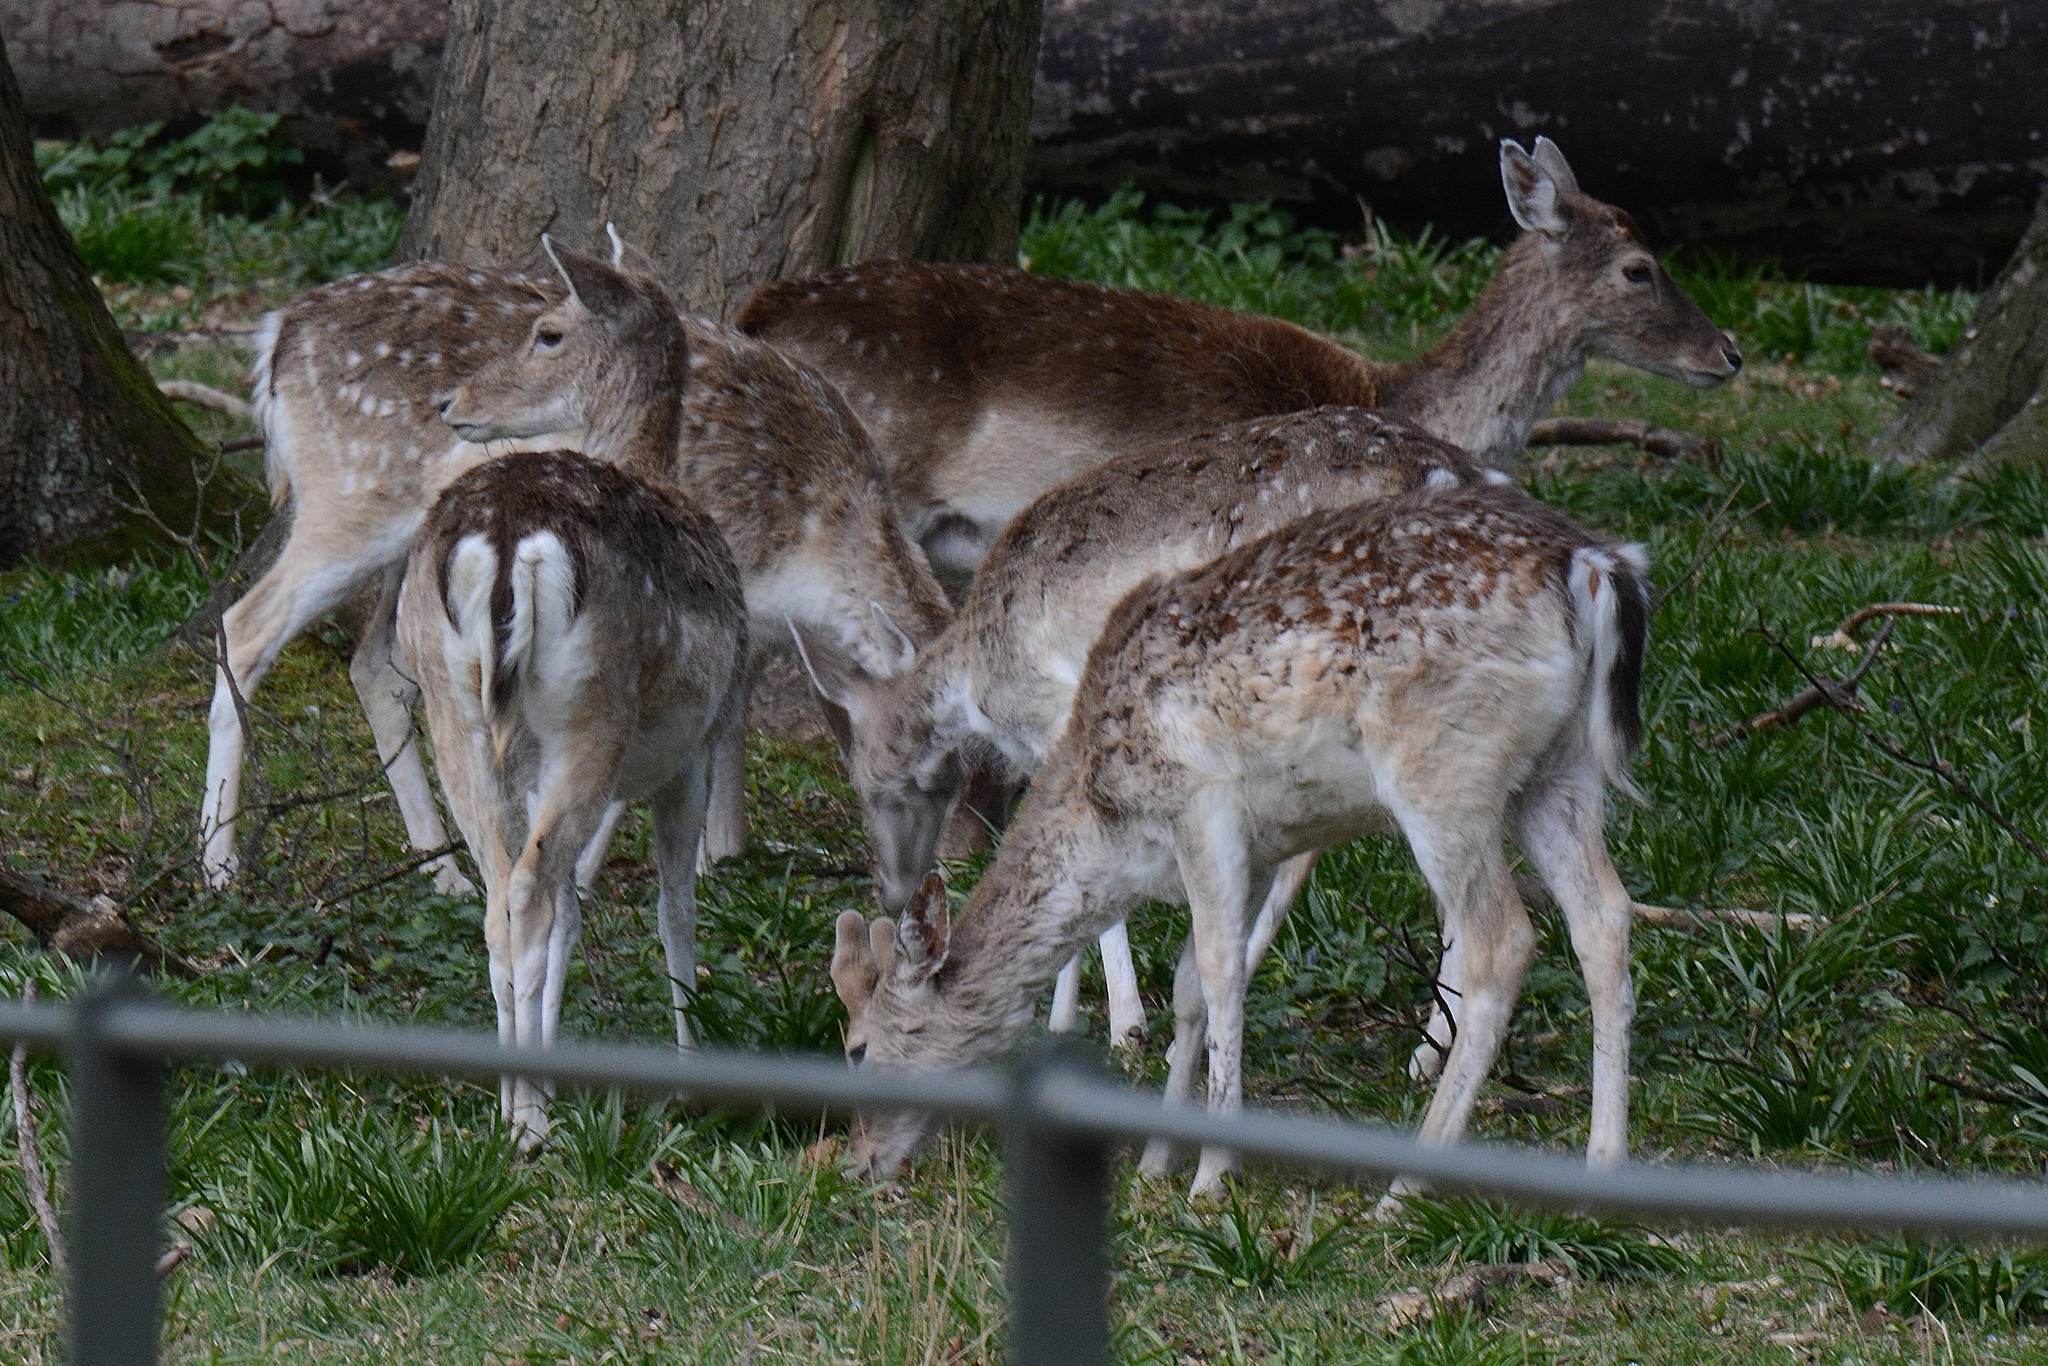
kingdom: Animalia
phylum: Chordata
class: Mammalia
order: Artiodactyla
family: Cervidae
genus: Dama
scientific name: Dama dama
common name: Fallow deer
